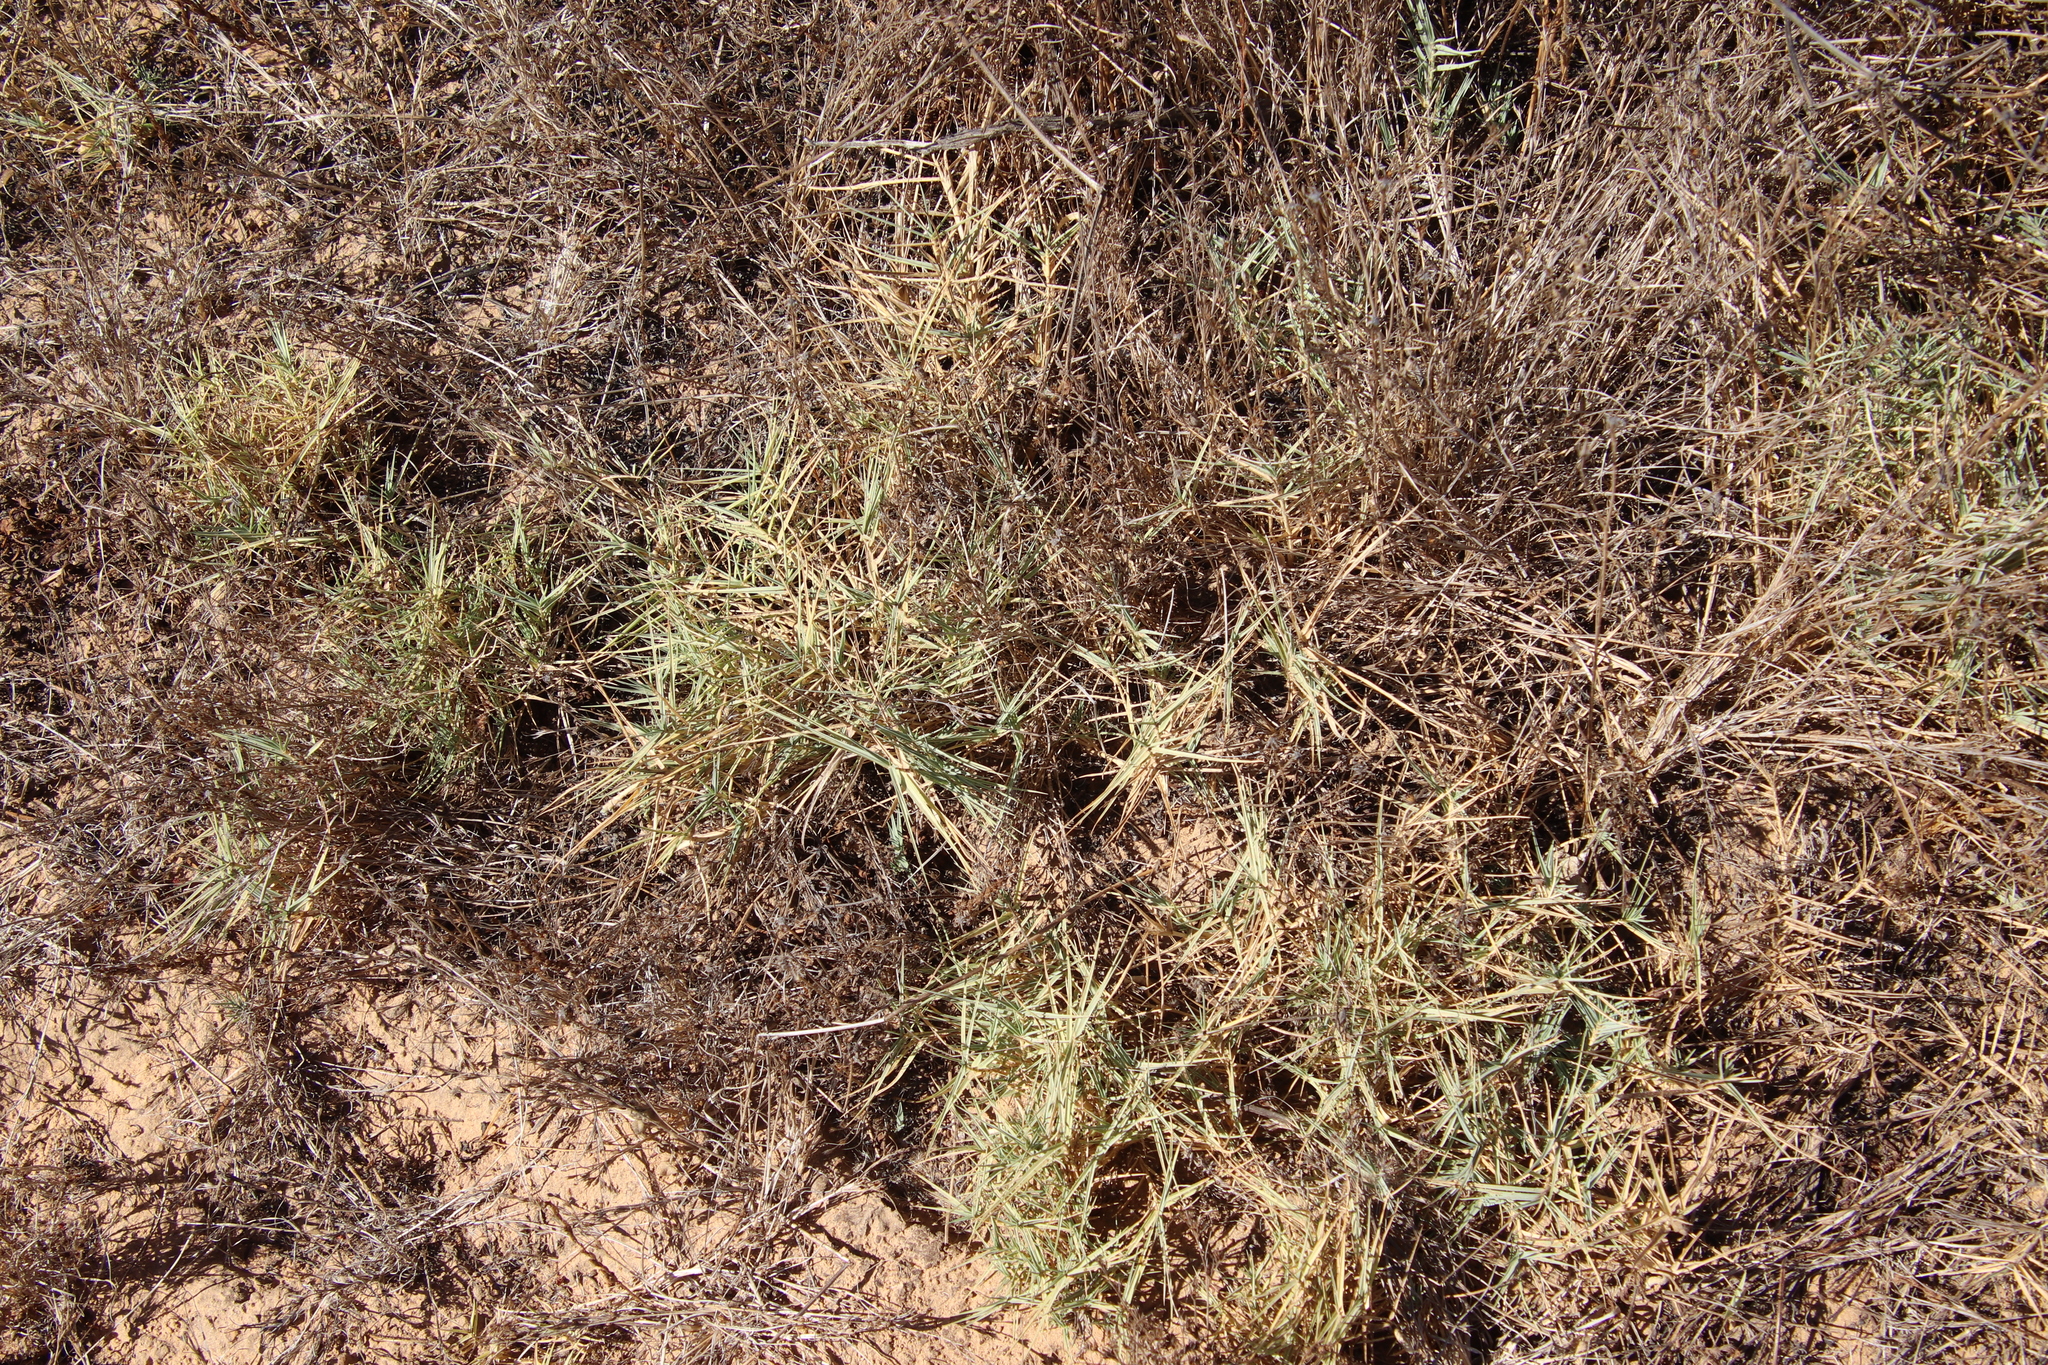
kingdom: Plantae
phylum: Tracheophyta
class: Liliopsida
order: Poales
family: Poaceae
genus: Distichlis
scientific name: Distichlis spicata
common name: Saltgrass
